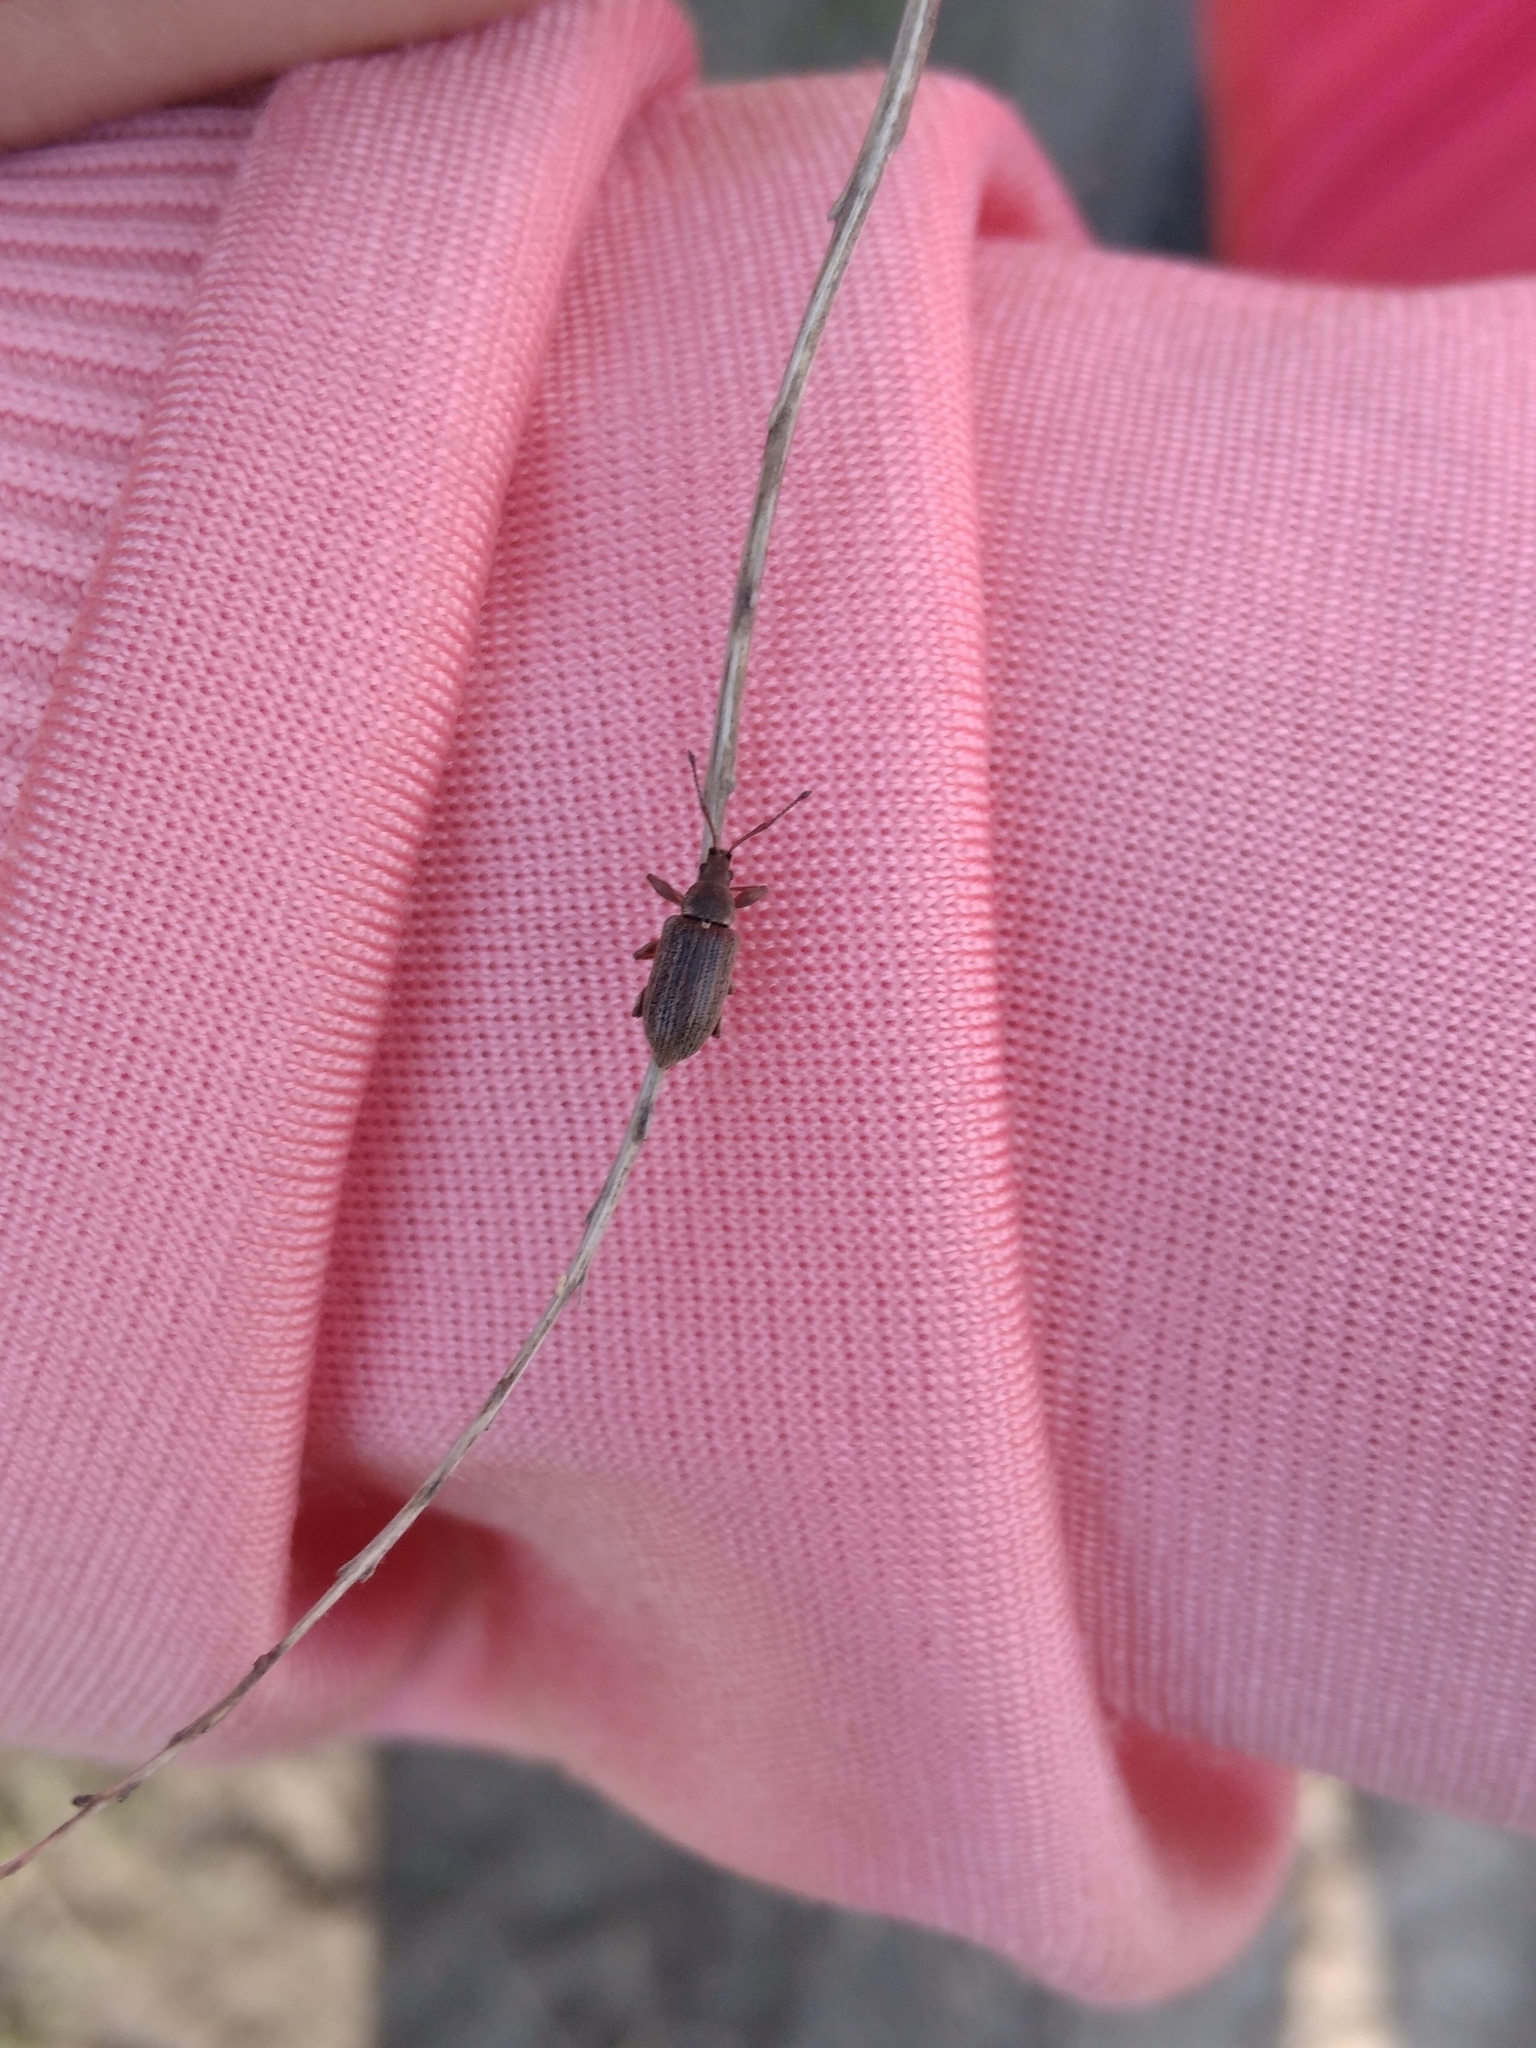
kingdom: Animalia
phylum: Arthropoda
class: Insecta
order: Coleoptera
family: Curculionidae
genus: Phyllobius
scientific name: Phyllobius pyri
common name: Common leaf weevil
